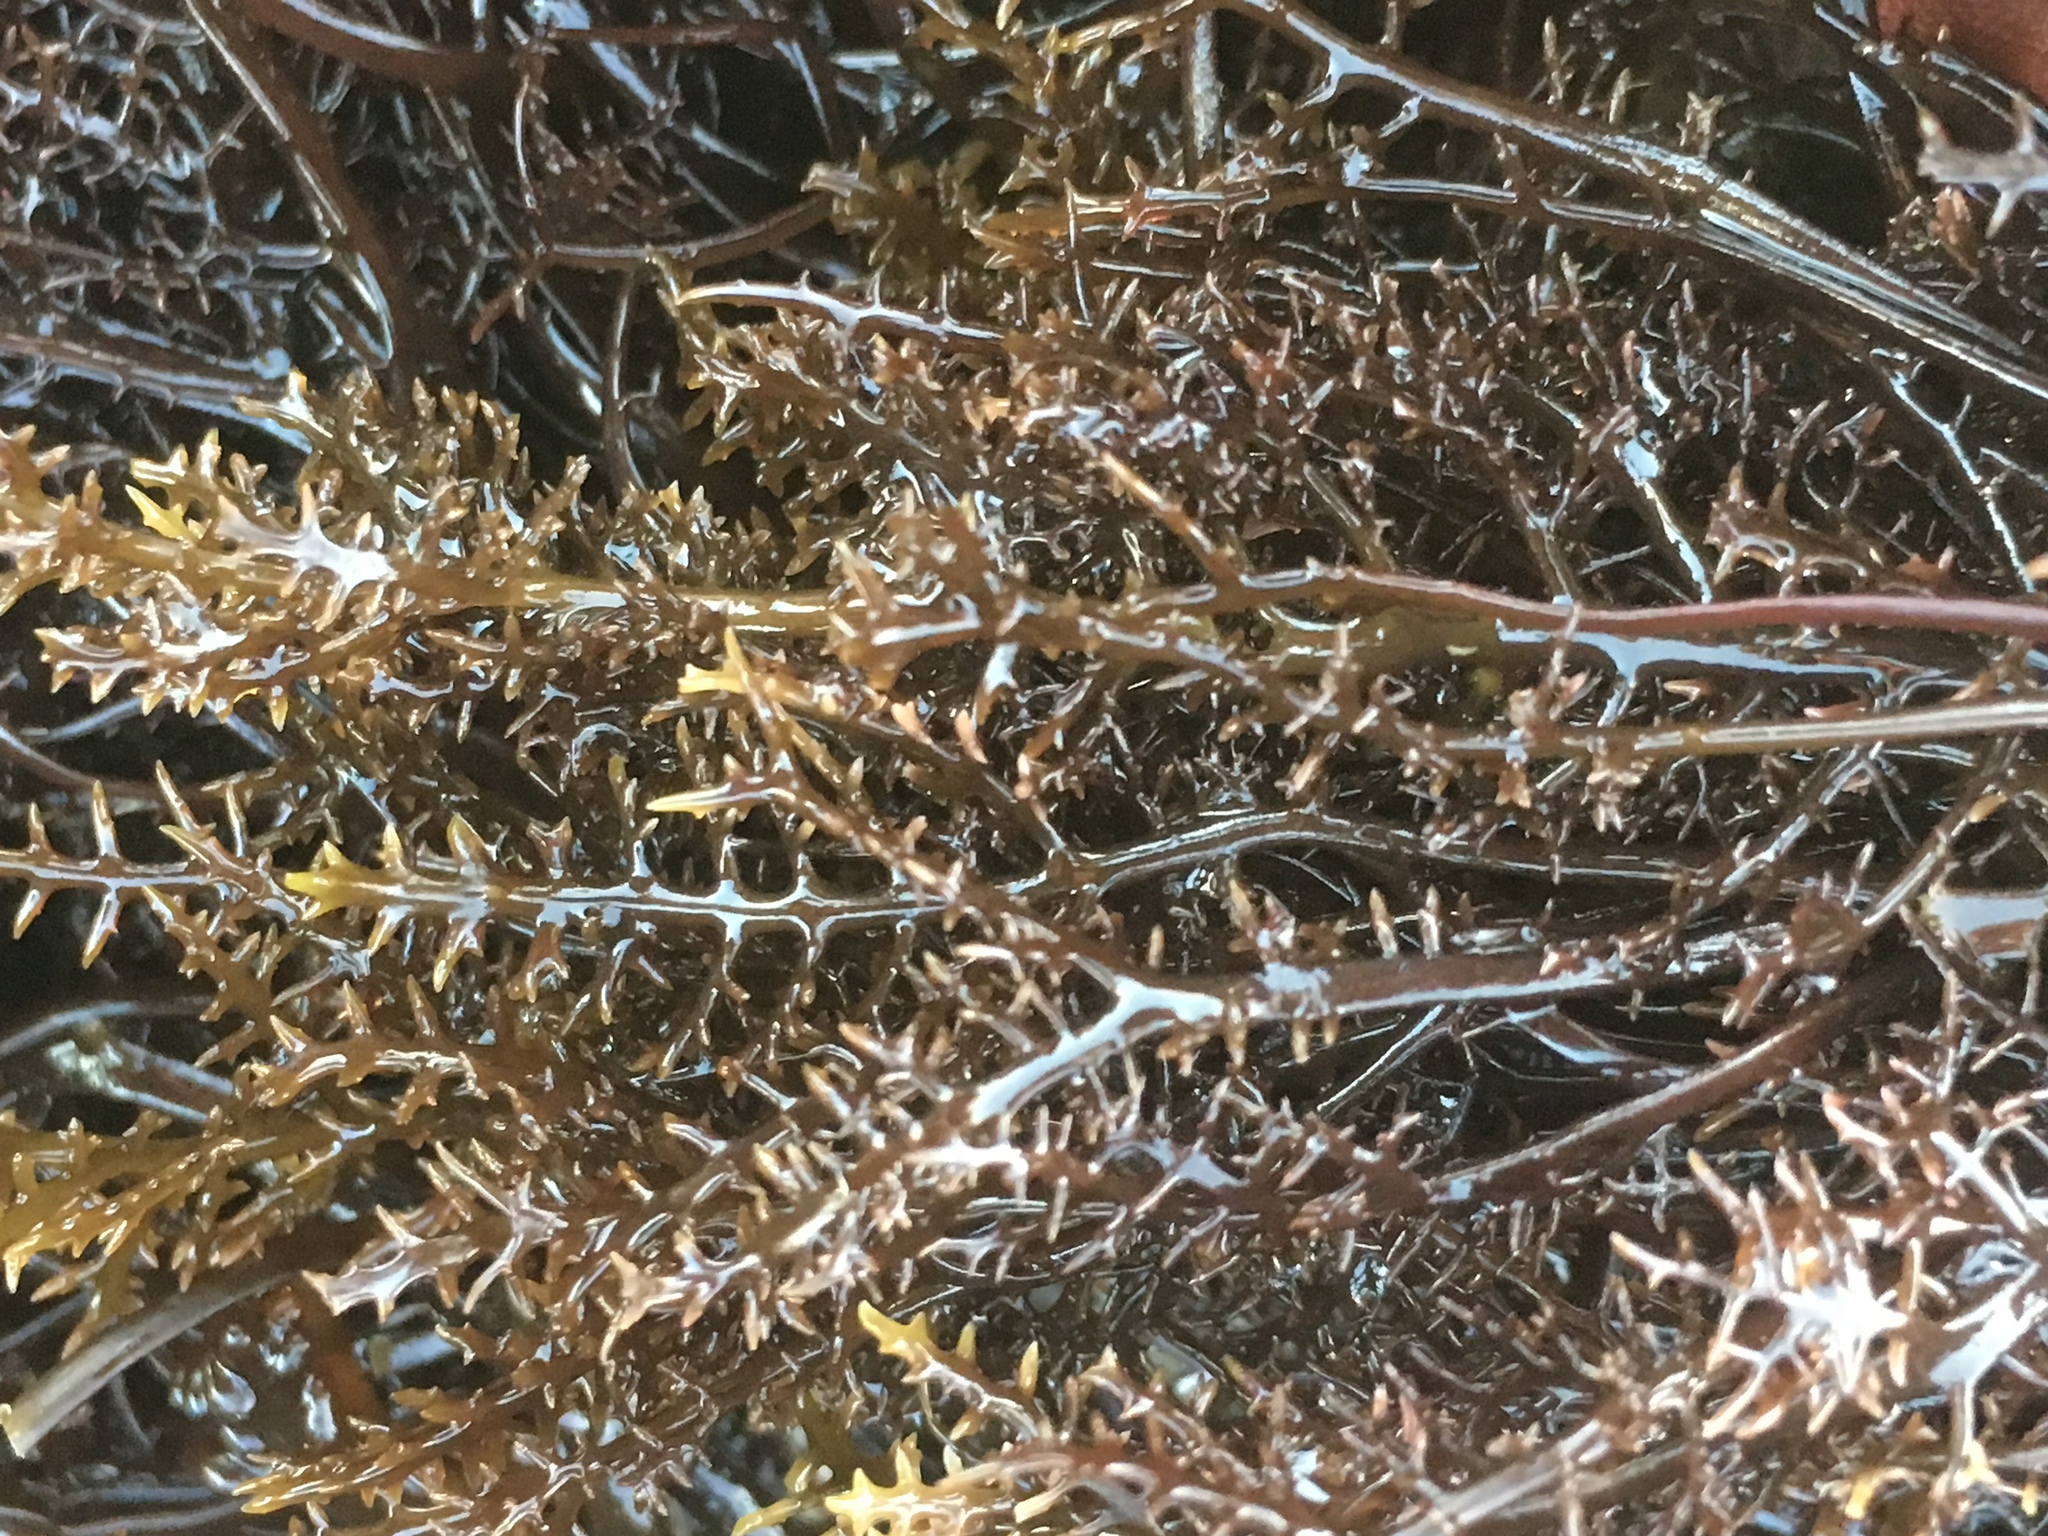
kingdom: Plantae
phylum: Rhodophyta
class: Florideophyceae
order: Gigartinales
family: Gigartinaceae
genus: Chondracanthus
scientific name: Chondracanthus canaliculatus
